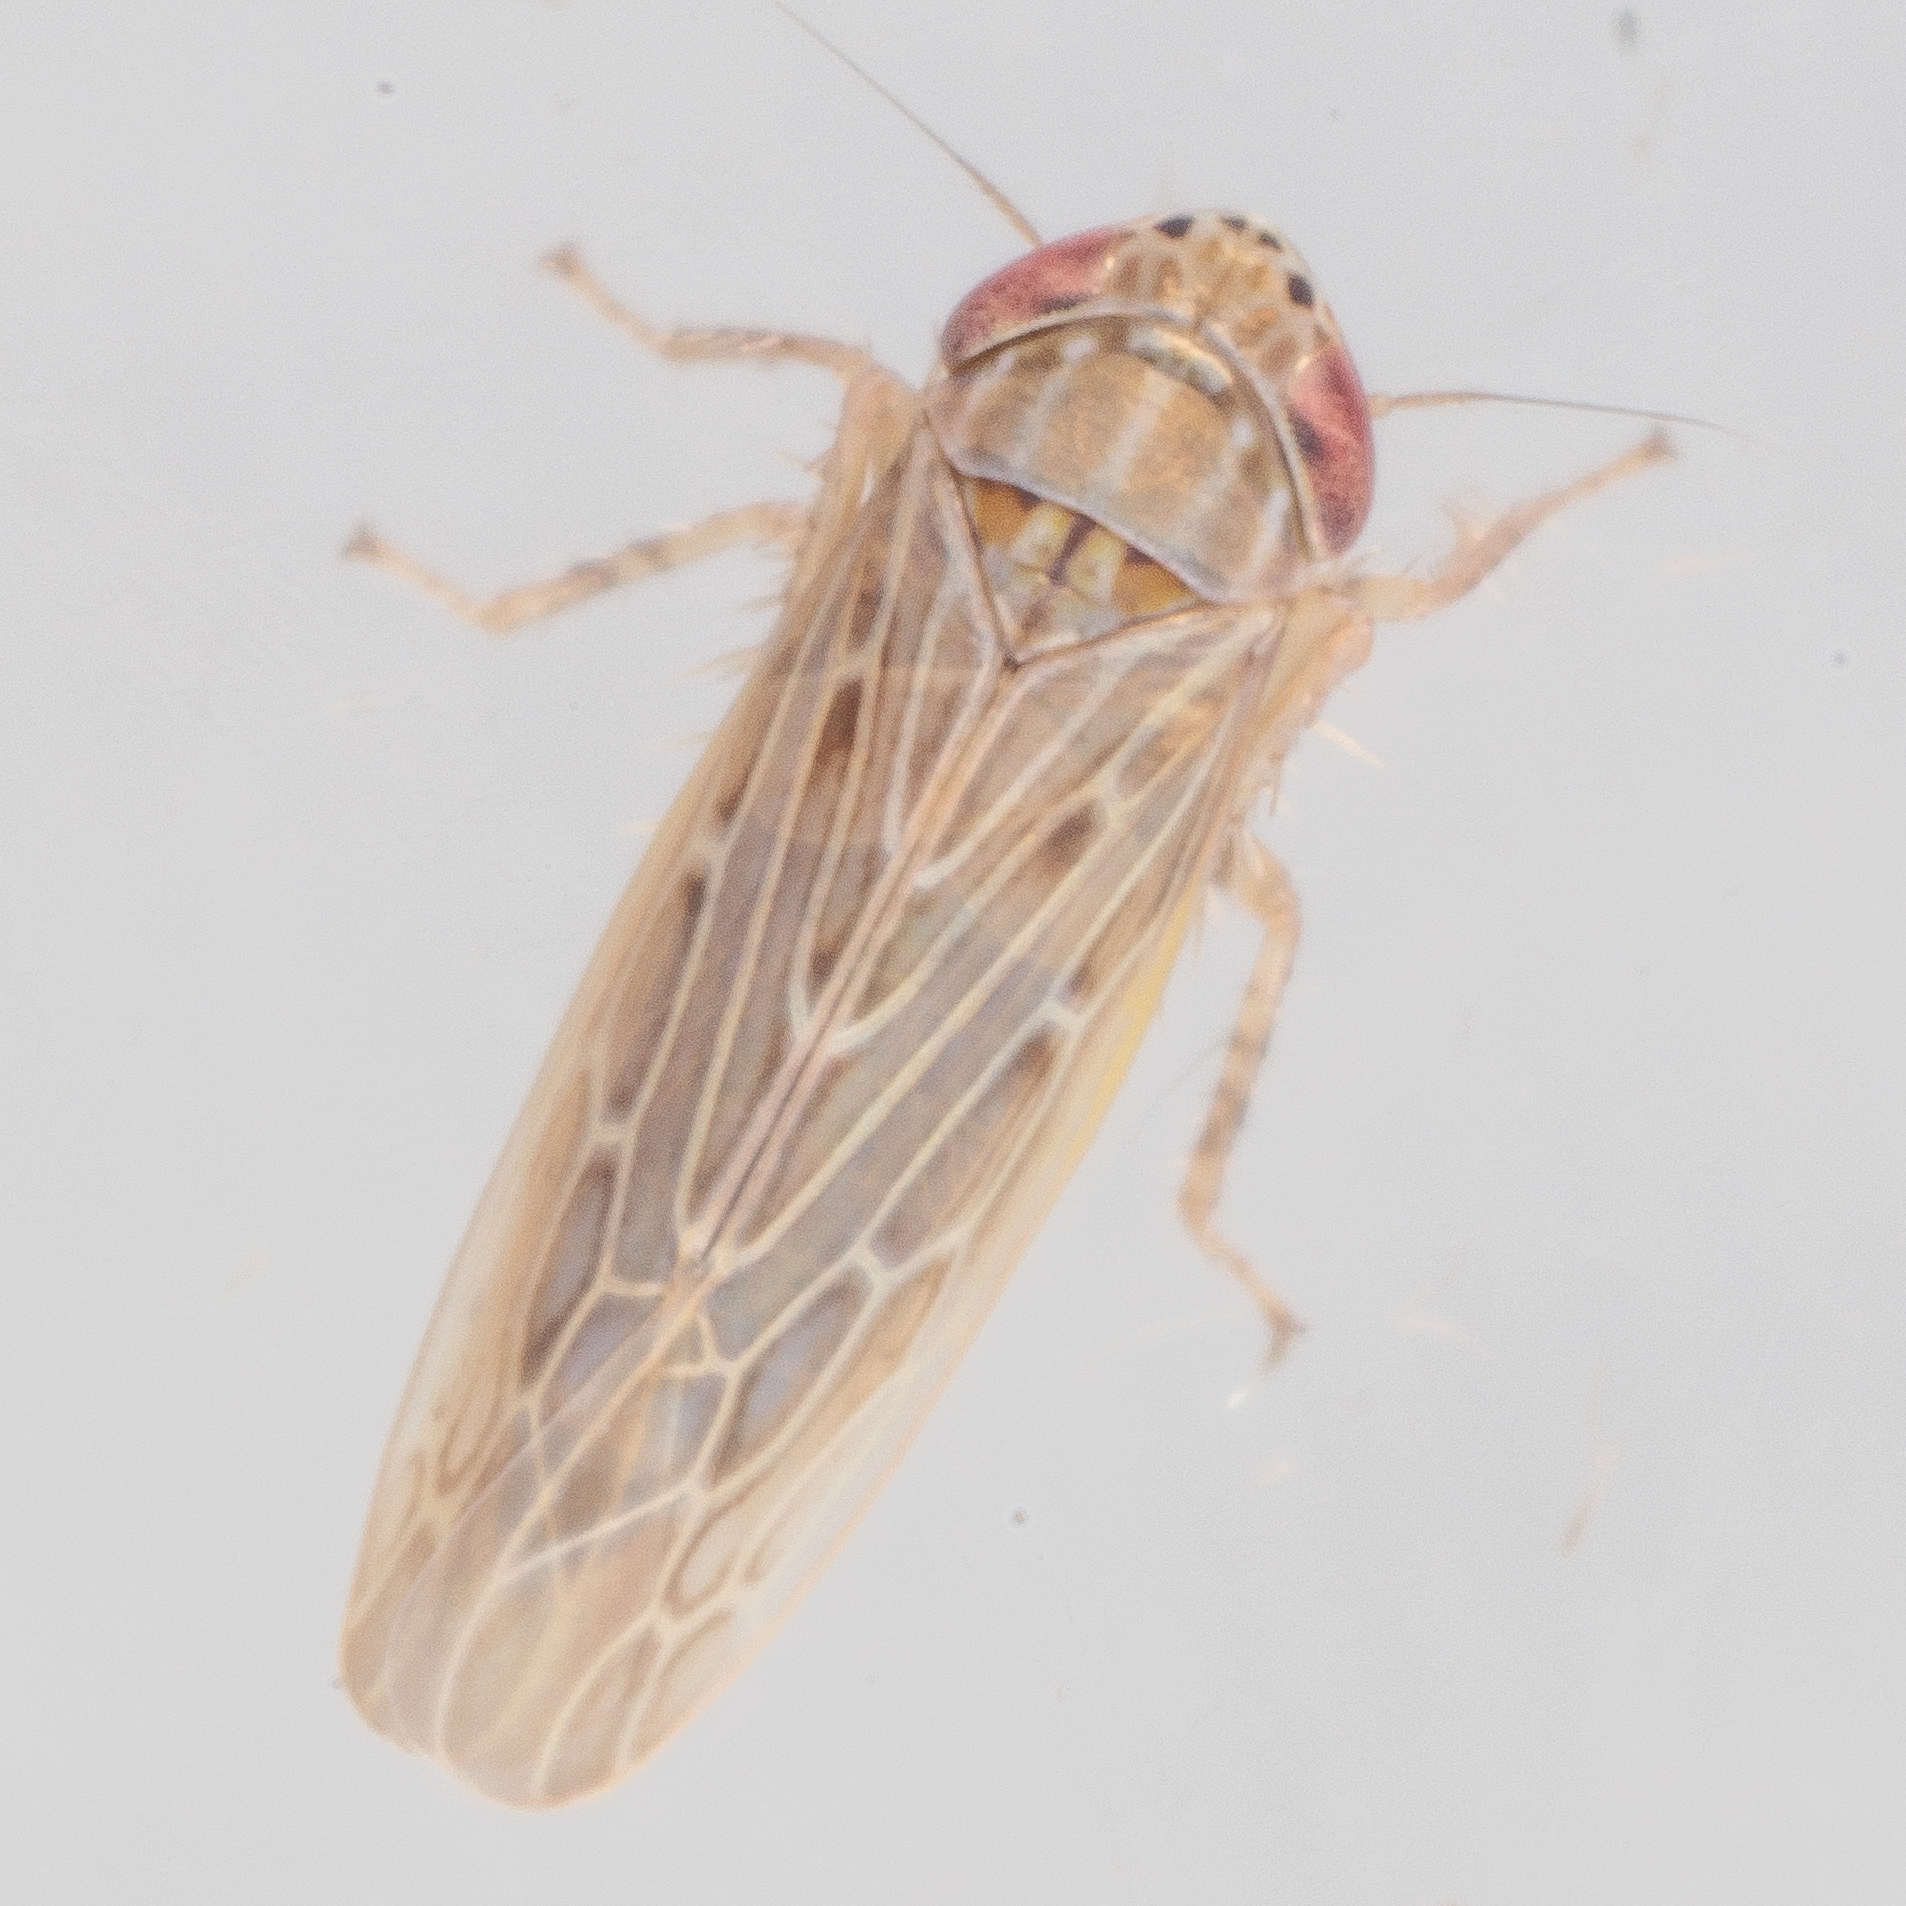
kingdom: Animalia
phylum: Arthropoda
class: Insecta
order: Hemiptera
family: Cicadellidae
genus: Graminella
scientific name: Graminella sonora
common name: Lesser lawn leafhopper
